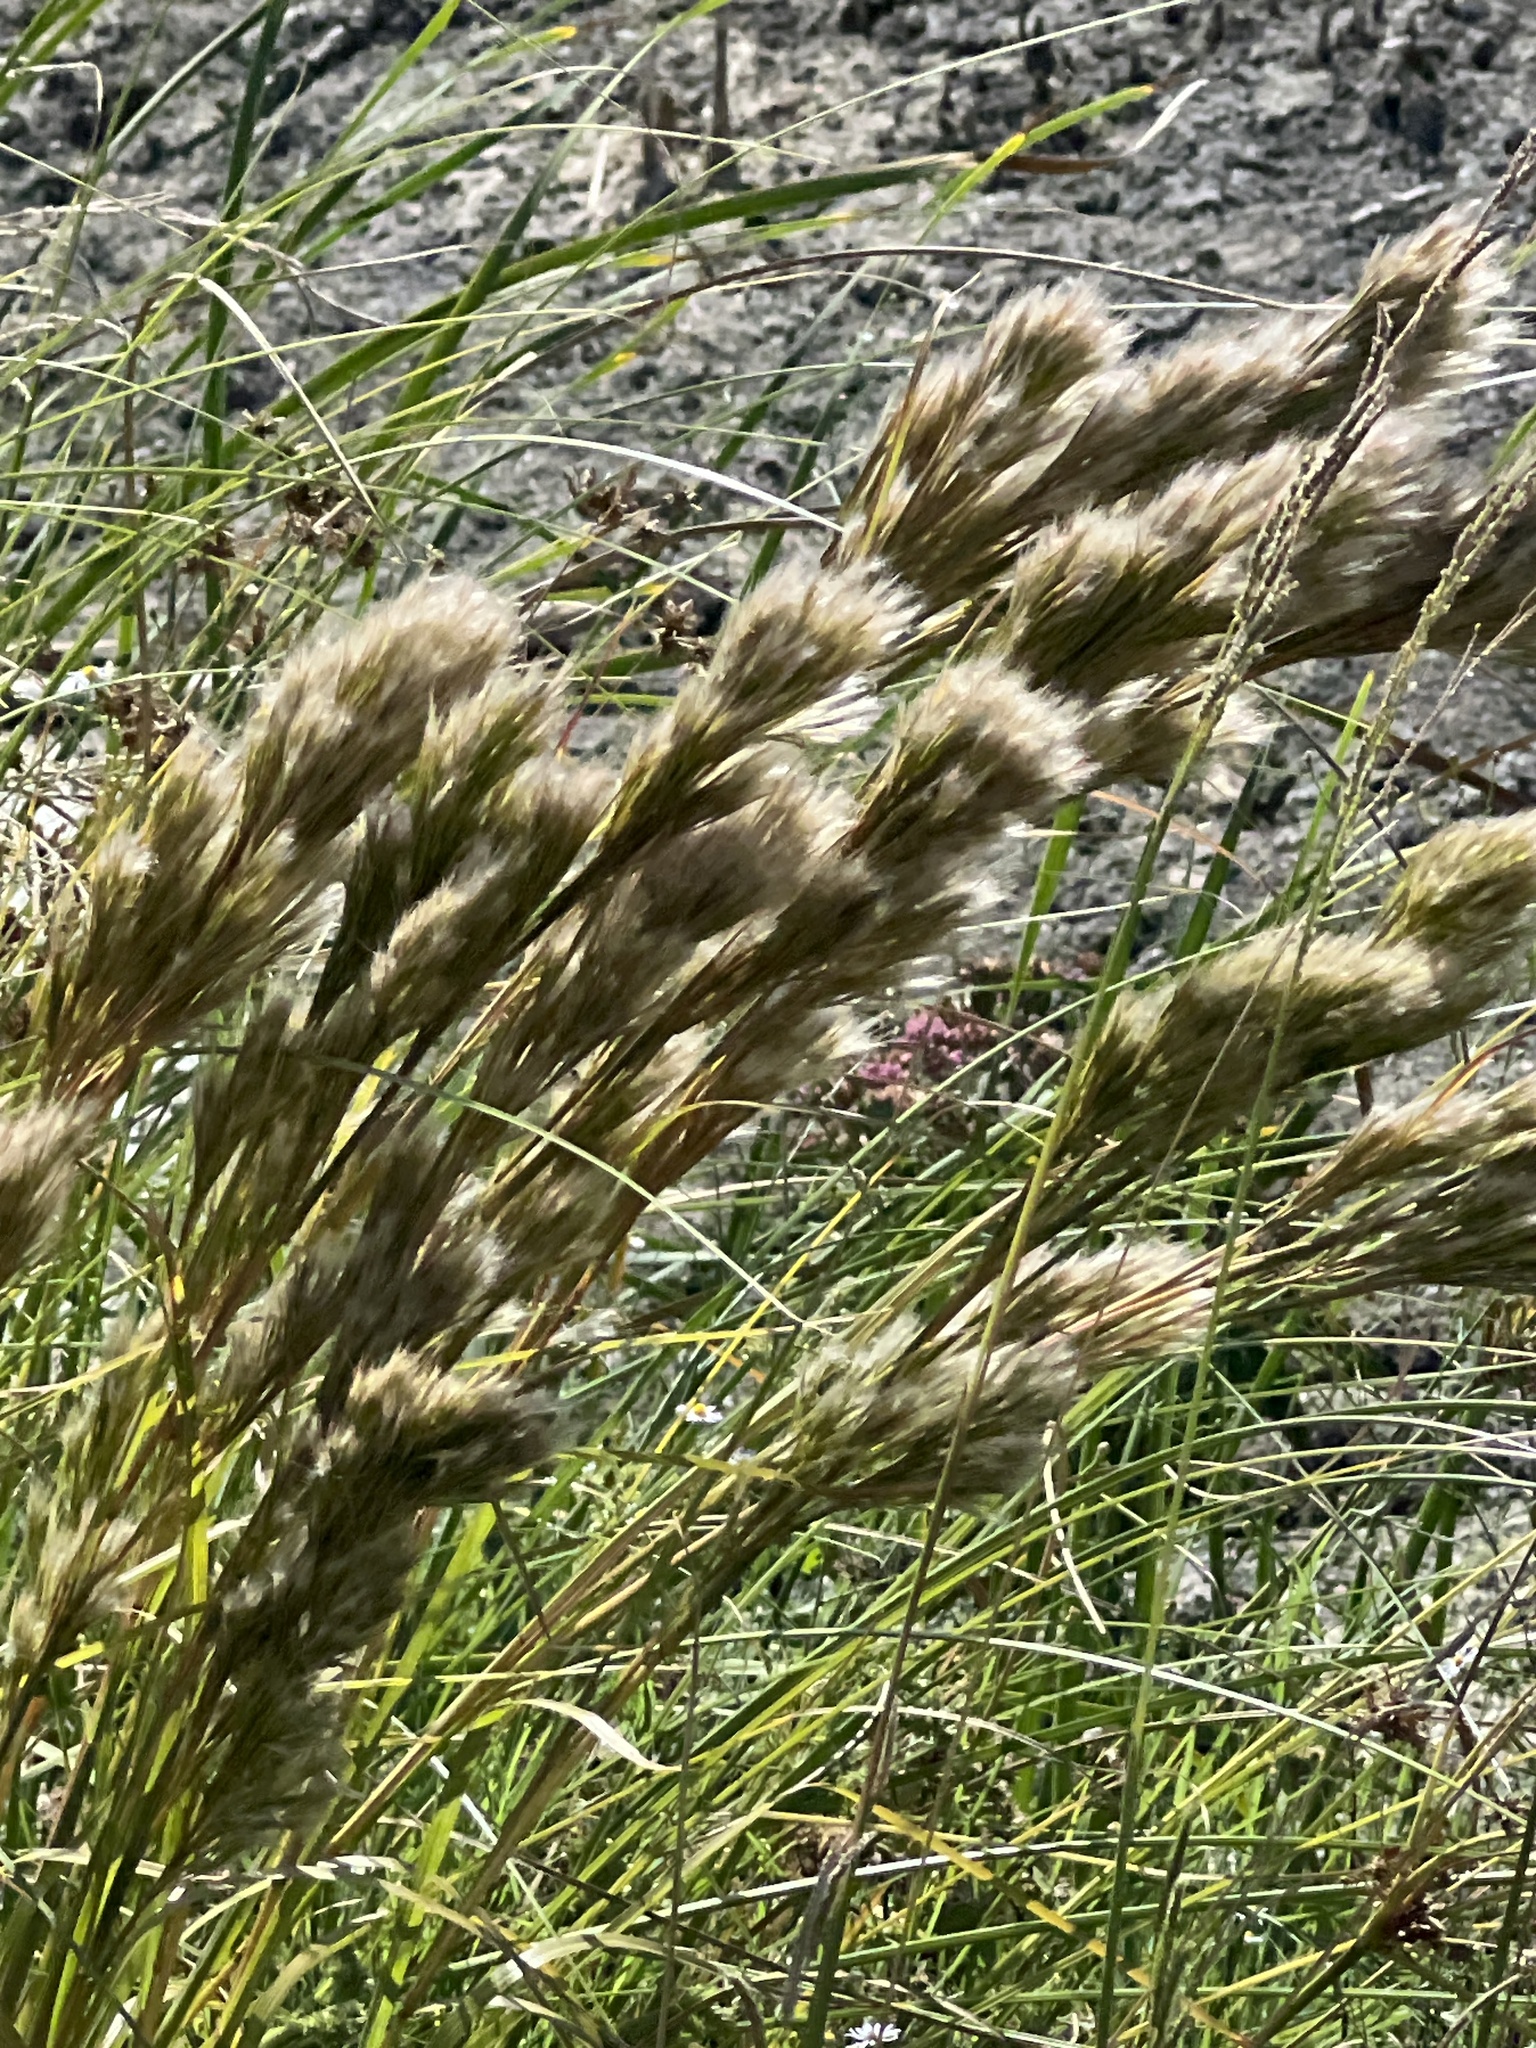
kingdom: Plantae
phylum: Tracheophyta
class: Liliopsida
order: Poales
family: Poaceae
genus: Andropogon
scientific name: Andropogon tenuispatheus
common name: Bushy bluestem
